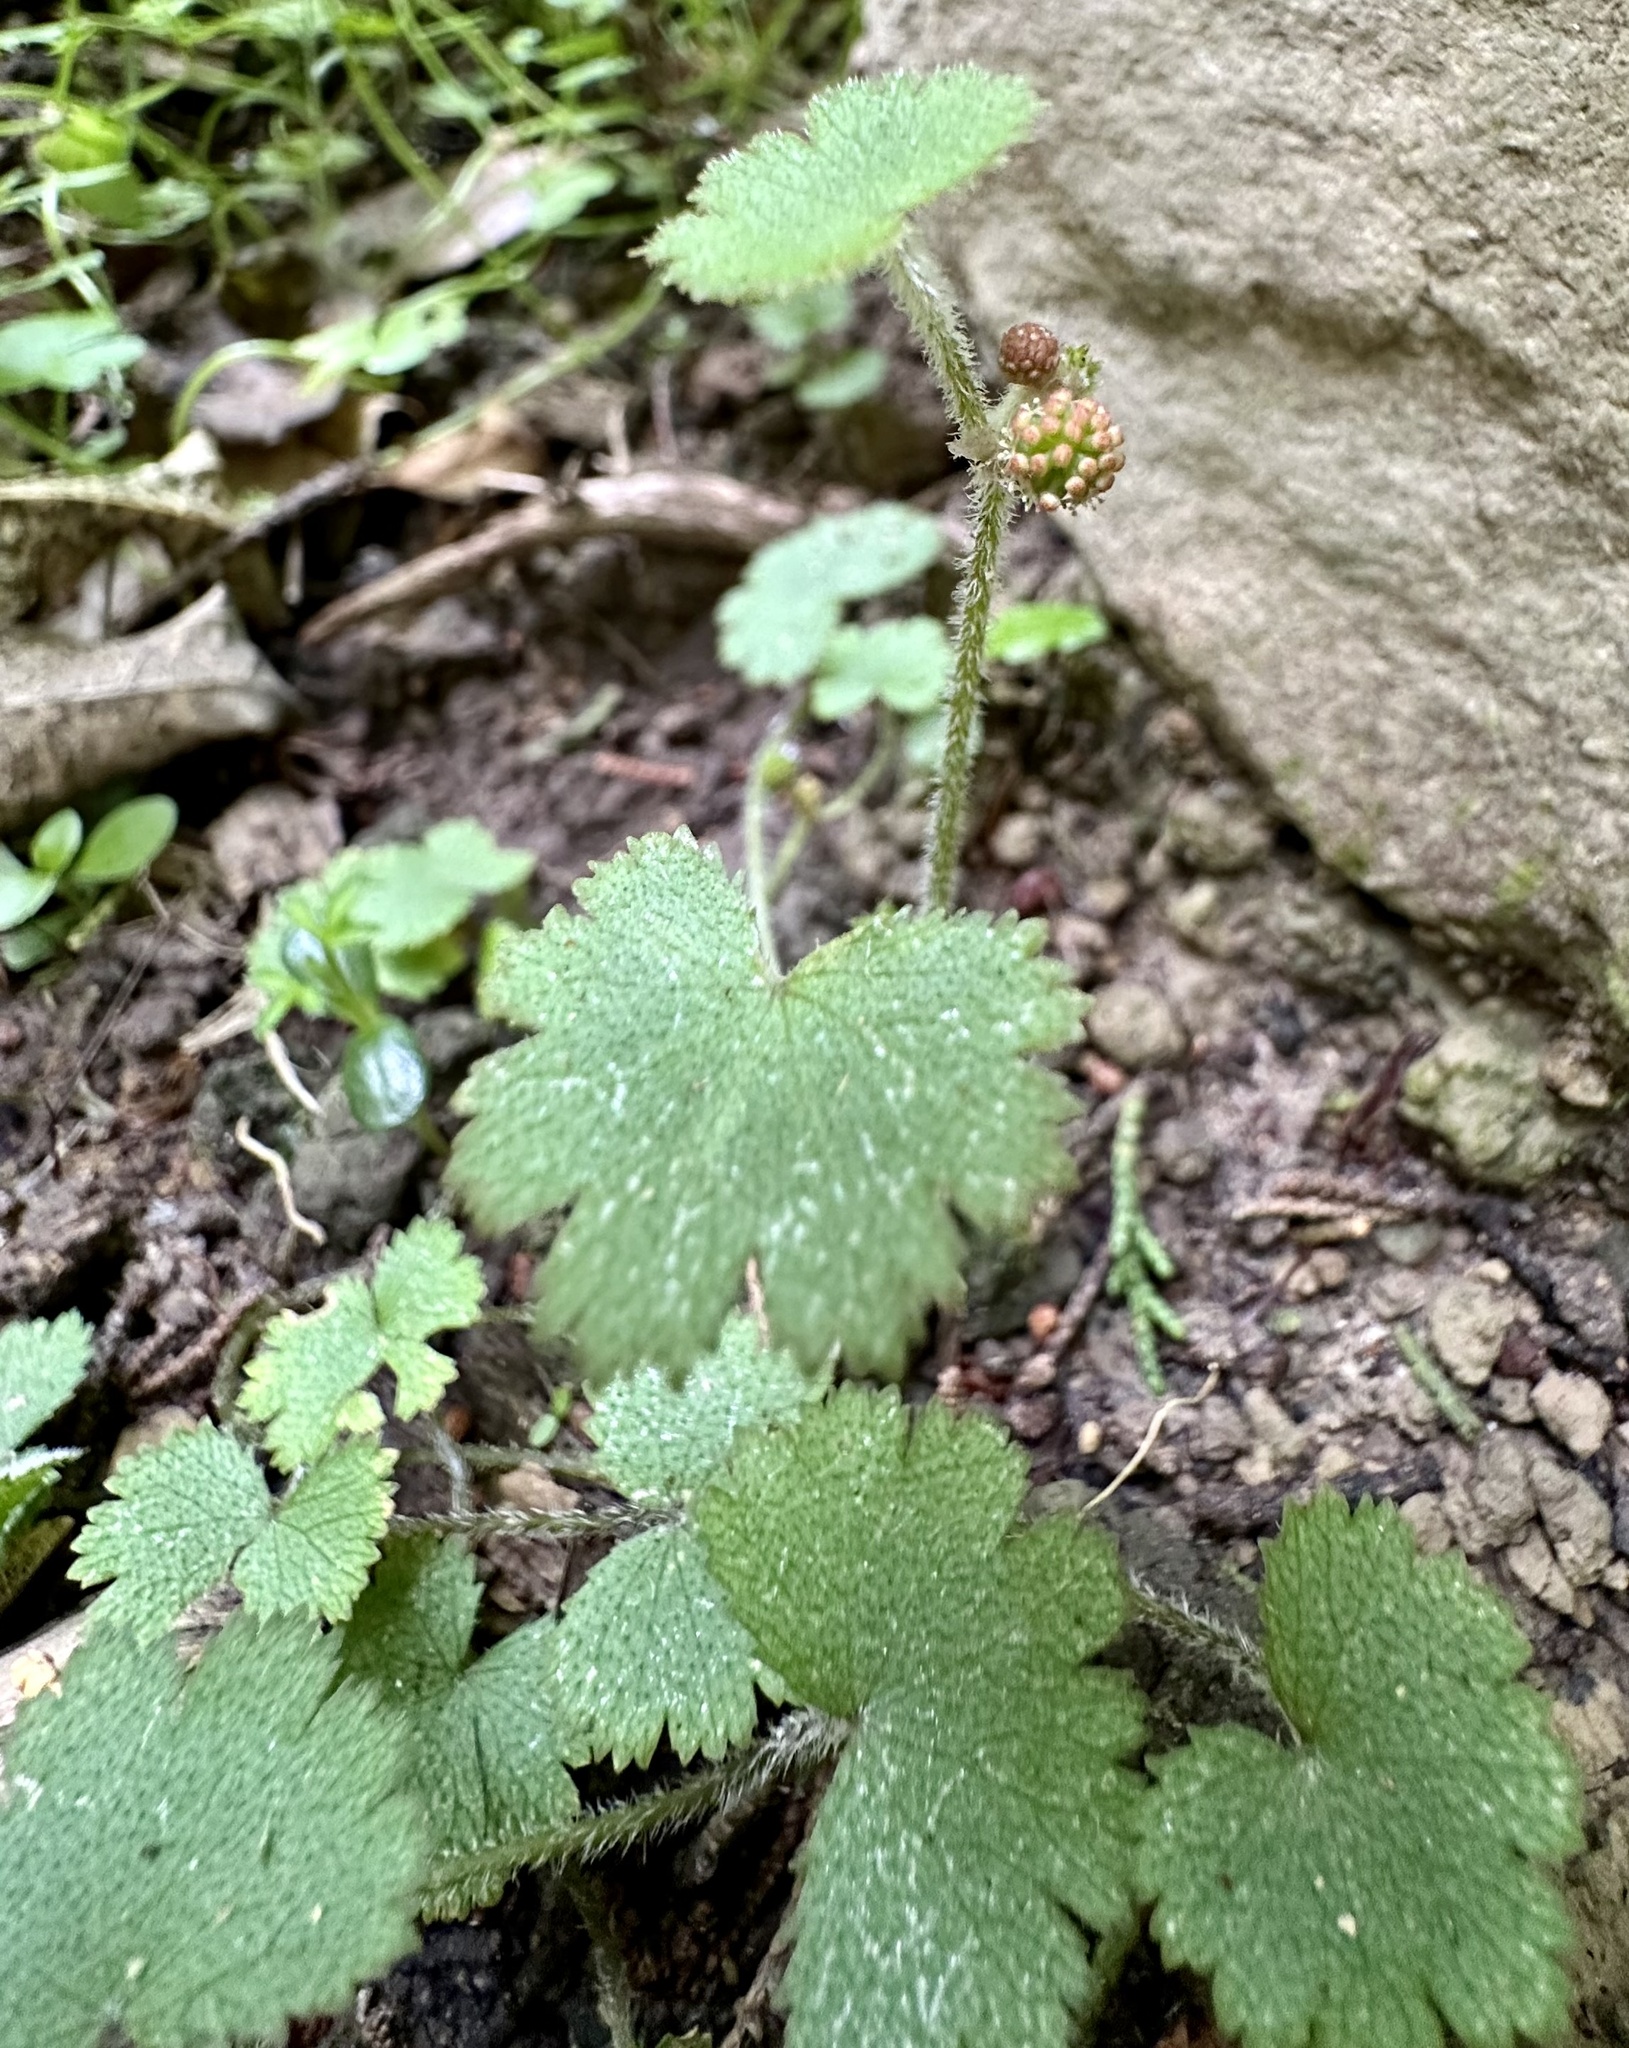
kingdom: Plantae
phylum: Tracheophyta
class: Magnoliopsida
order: Apiales
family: Araliaceae
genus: Hydrocotyle
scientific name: Hydrocotyle moschata
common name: Hairy pennywort
